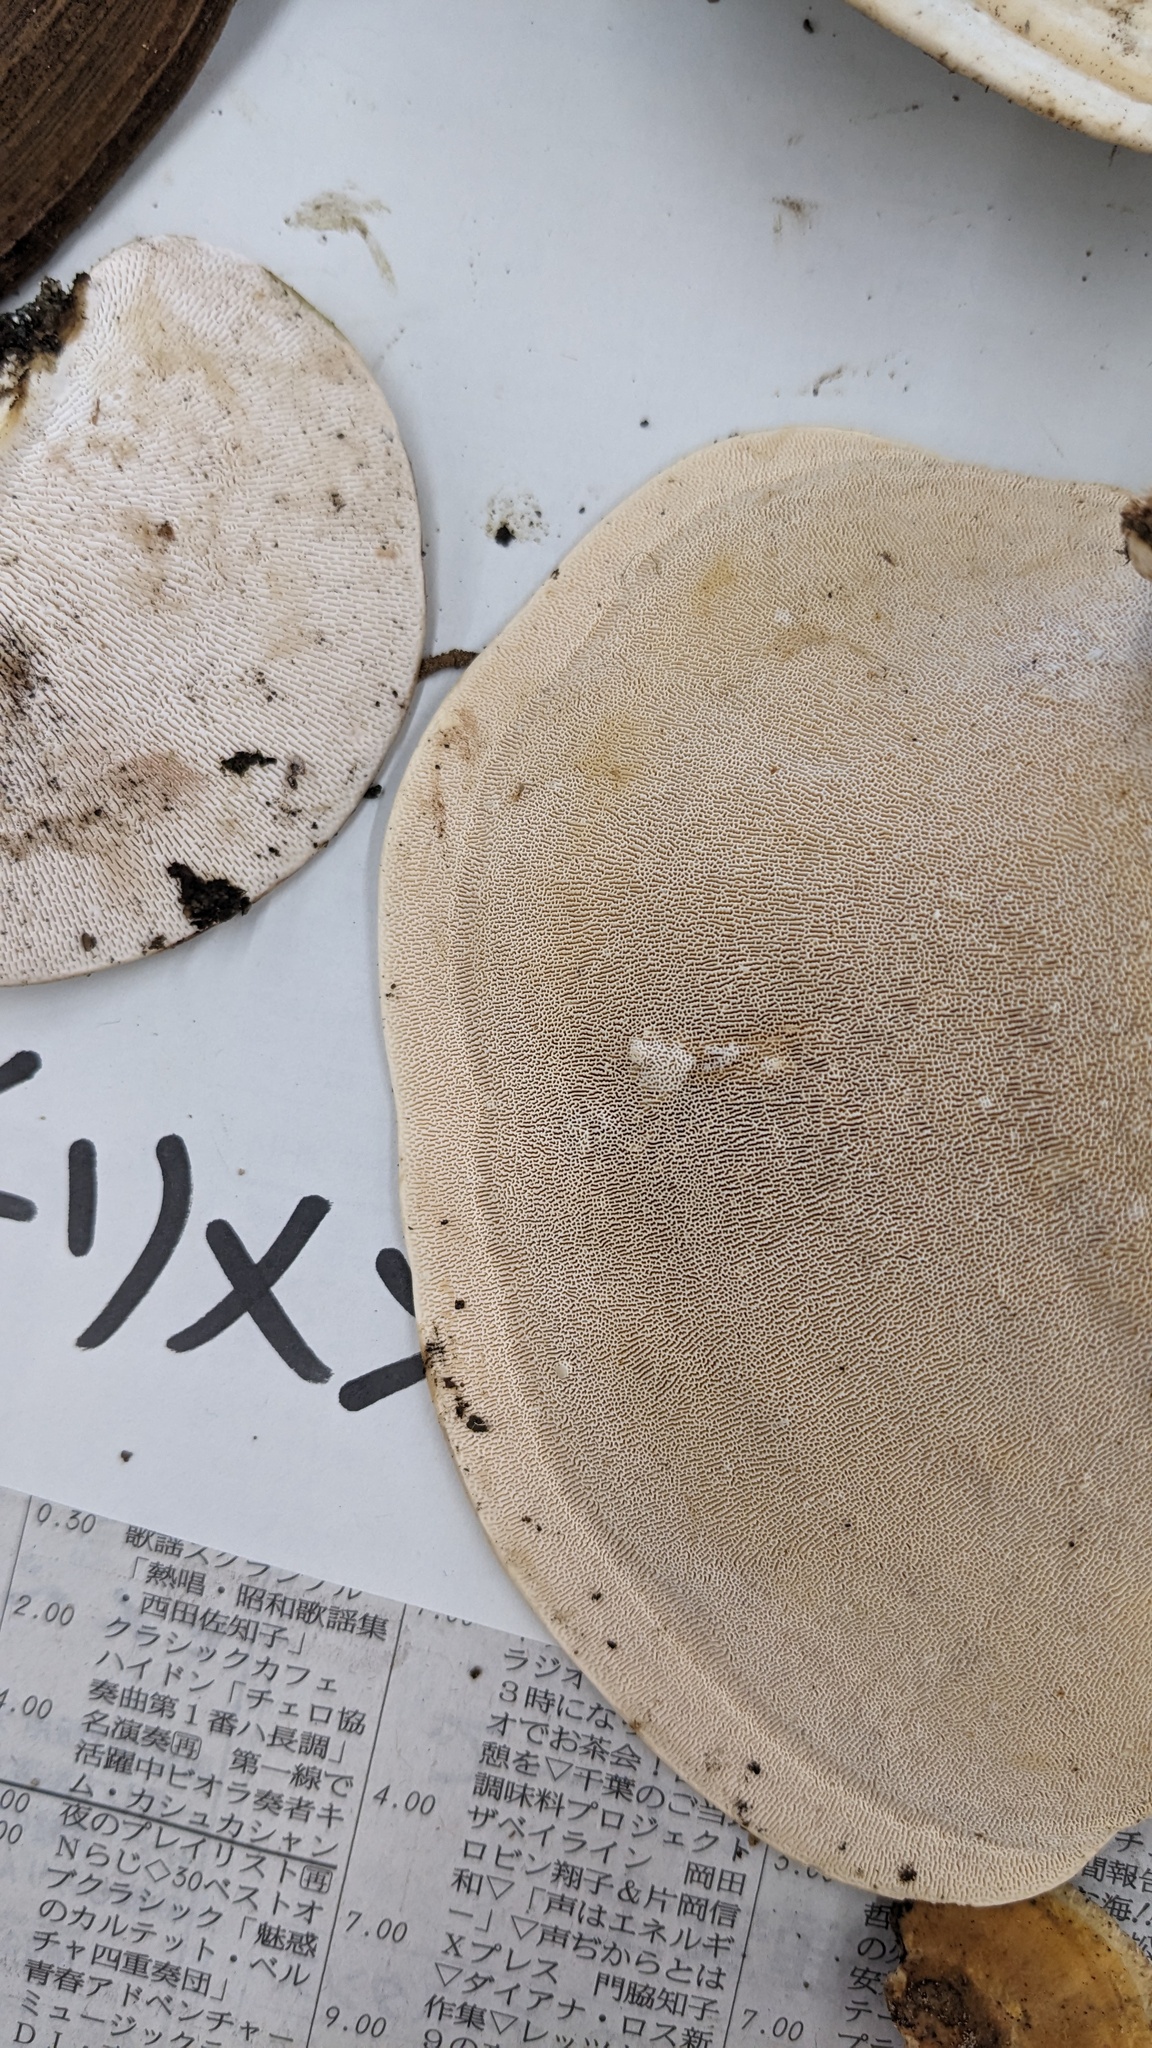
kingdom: Fungi
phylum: Basidiomycota
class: Agaricomycetes
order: Polyporales
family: Polyporaceae
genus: Trametes
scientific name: Trametes elegans
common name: White maze polypore
